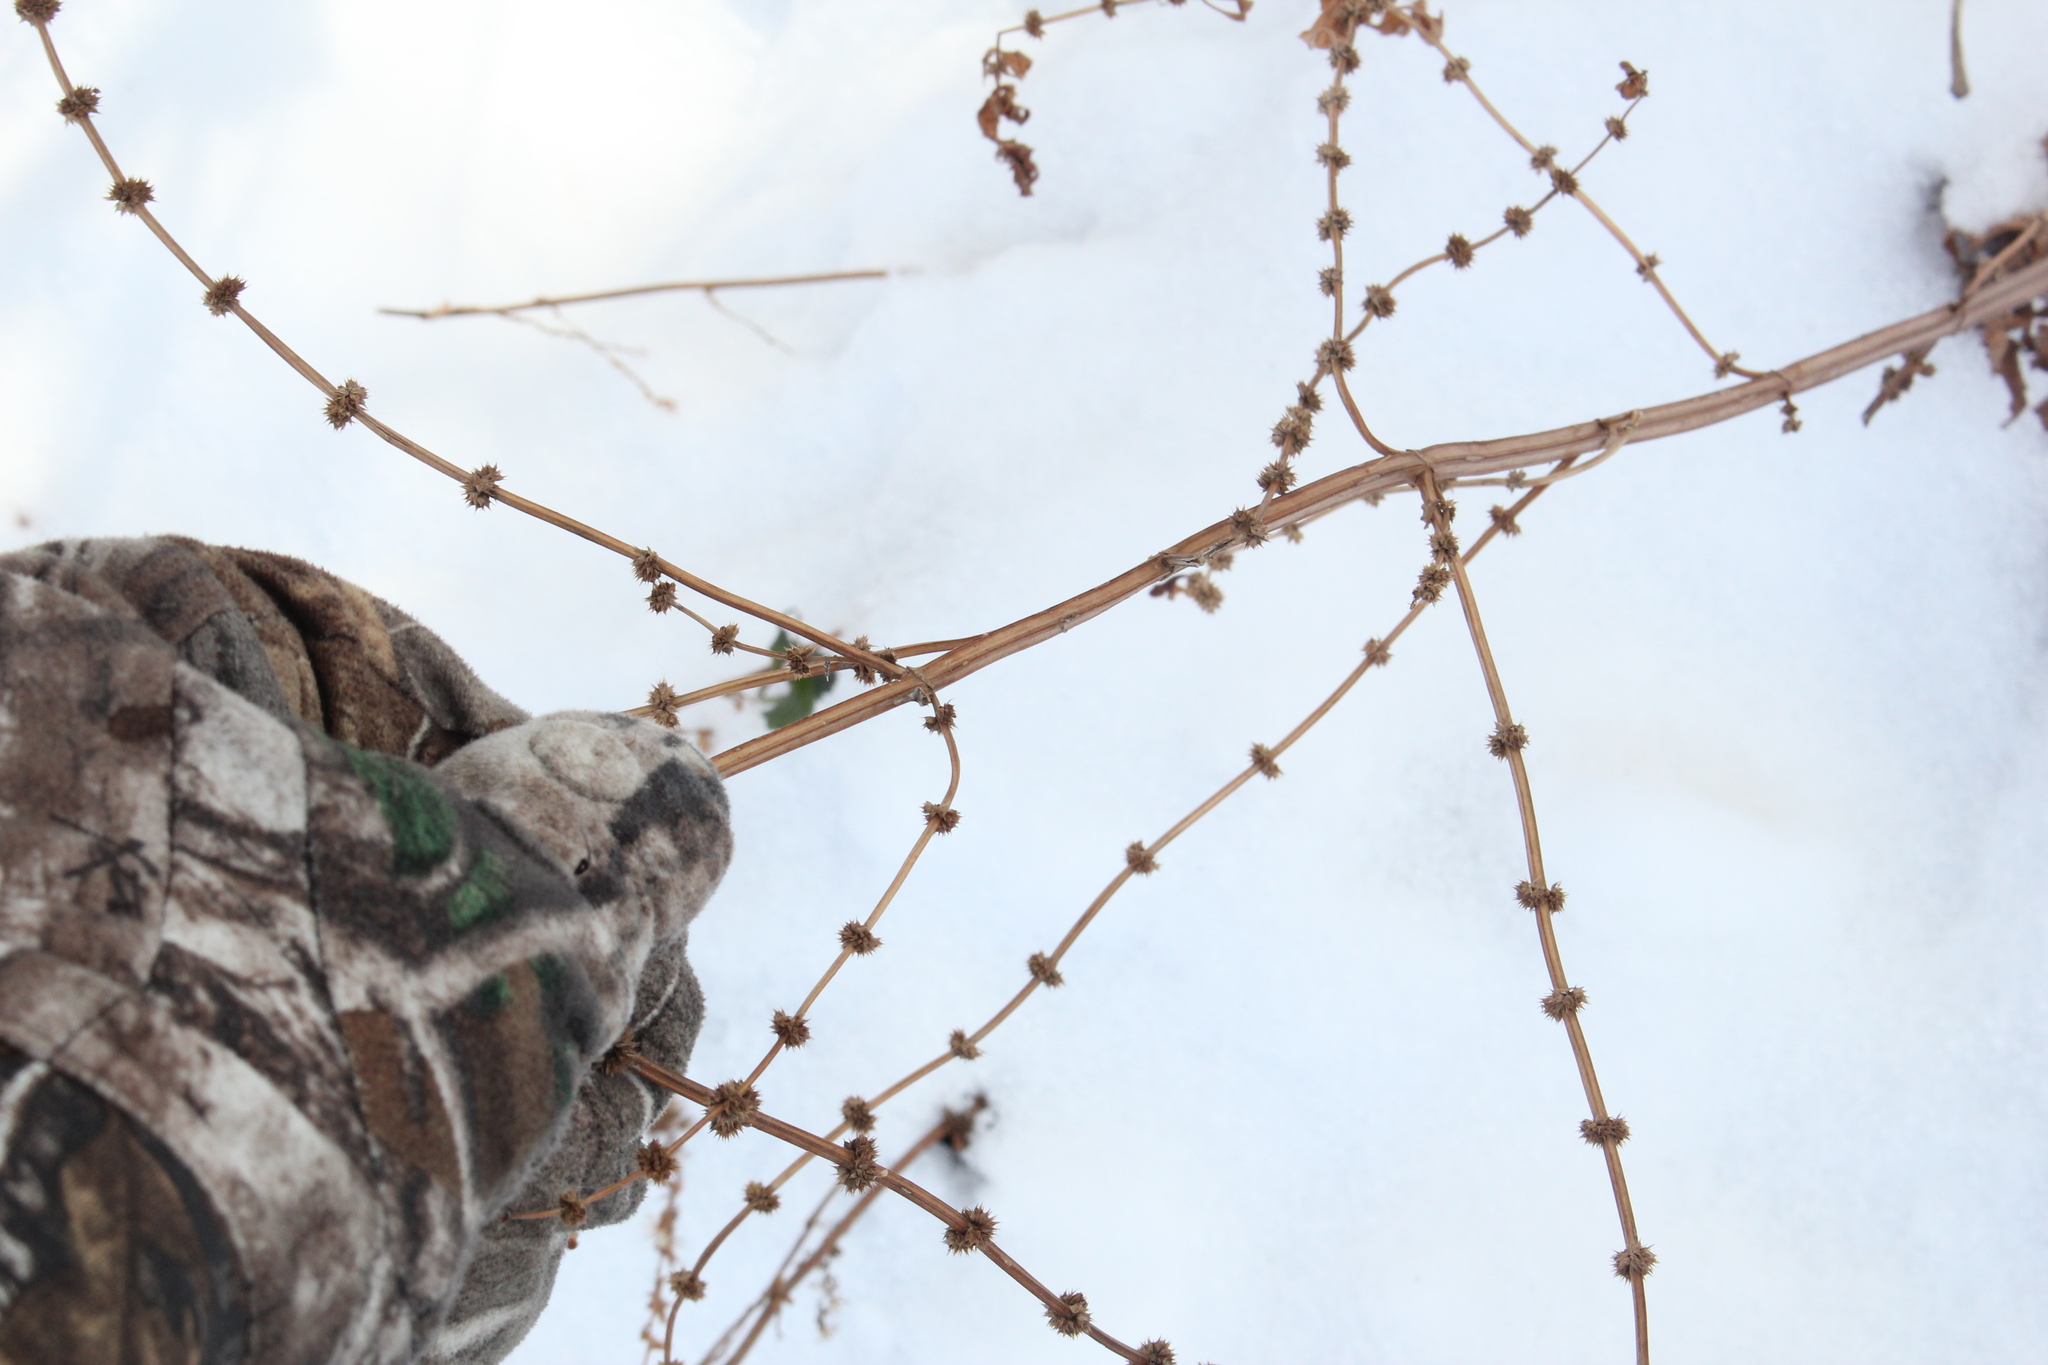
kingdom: Plantae
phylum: Tracheophyta
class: Magnoliopsida
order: Lamiales
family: Lamiaceae
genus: Leonurus
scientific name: Leonurus cardiaca
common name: Motherwort
